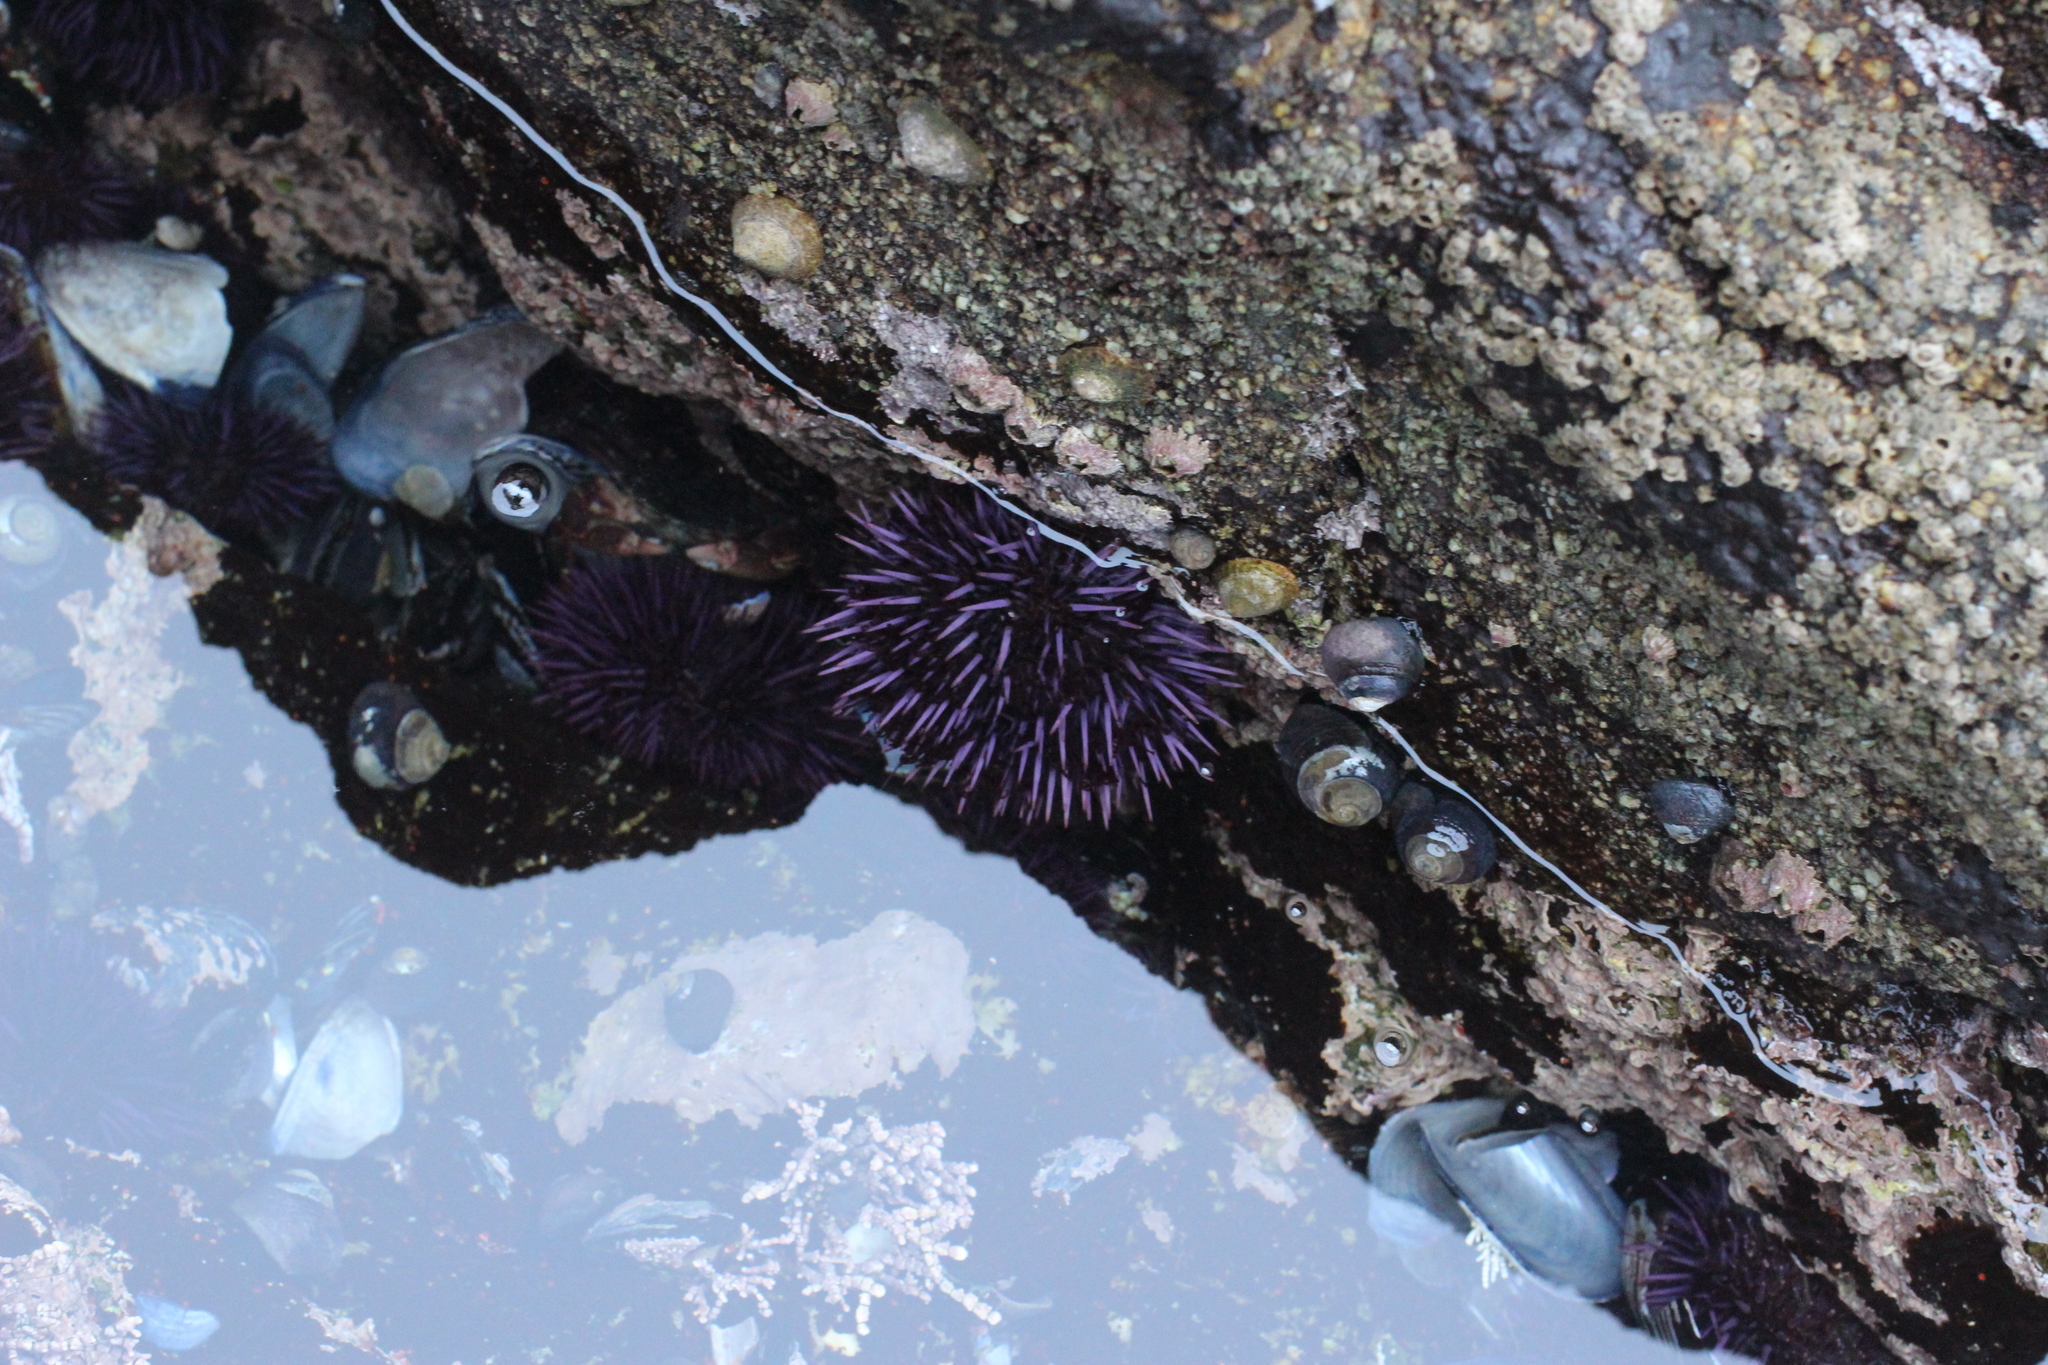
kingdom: Animalia
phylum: Echinodermata
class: Echinoidea
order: Camarodonta
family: Strongylocentrotidae
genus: Strongylocentrotus
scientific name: Strongylocentrotus purpuratus
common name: Purple sea urchin
